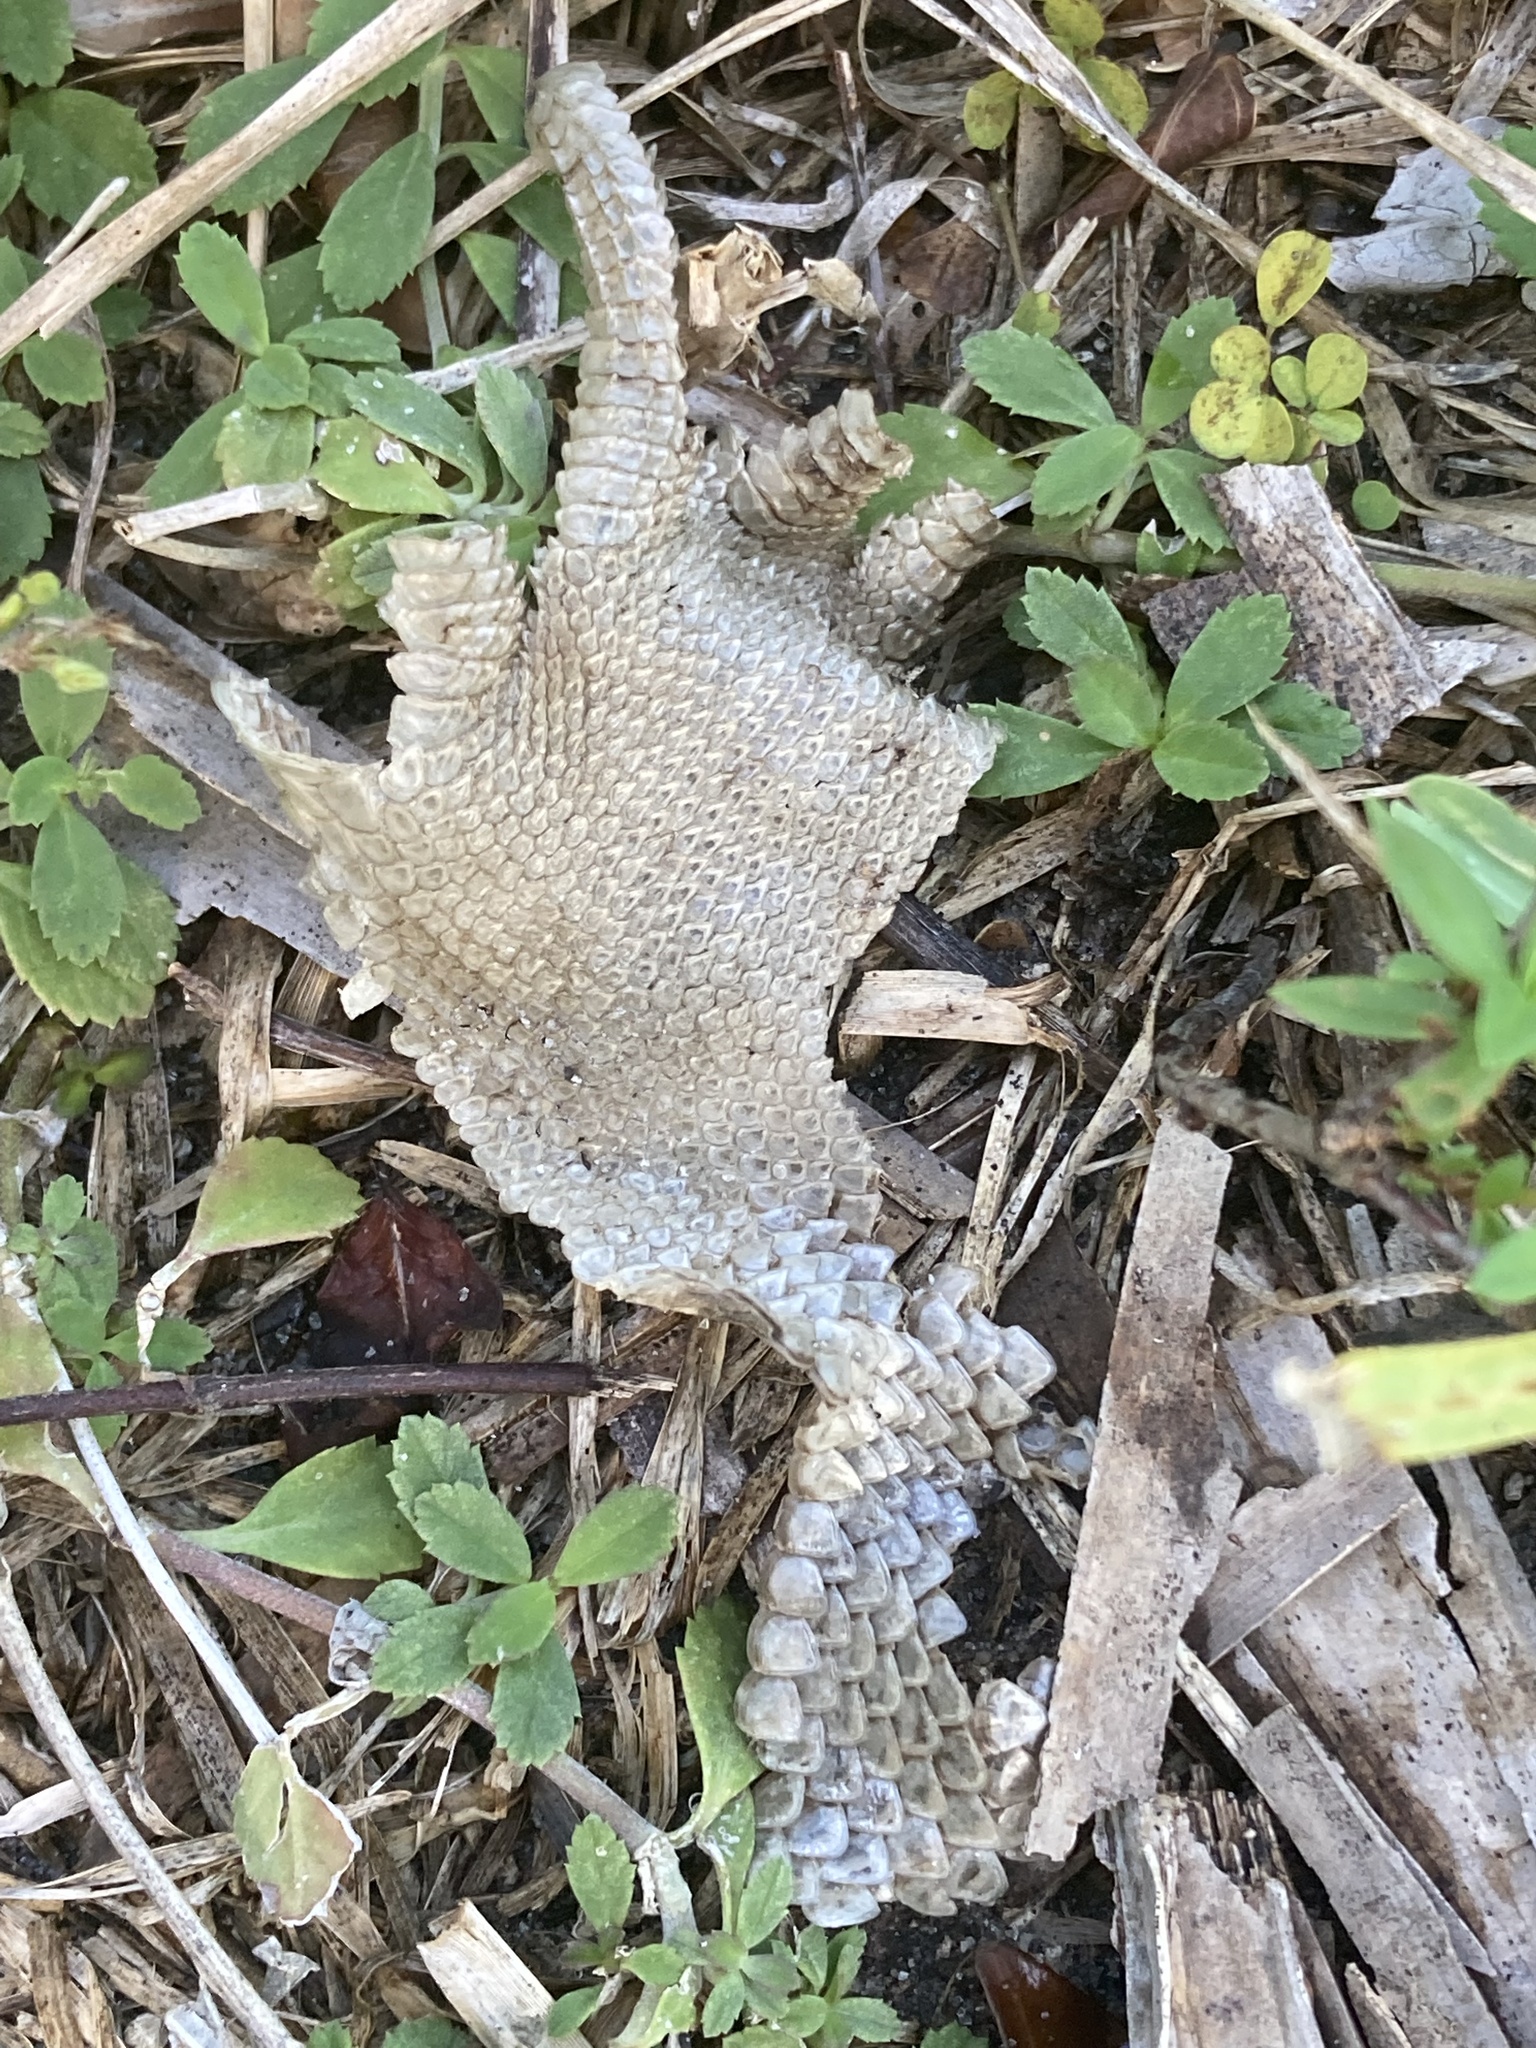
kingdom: Animalia
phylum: Chordata
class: Squamata
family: Iguanidae
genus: Iguana
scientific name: Iguana iguana
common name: Green iguana
